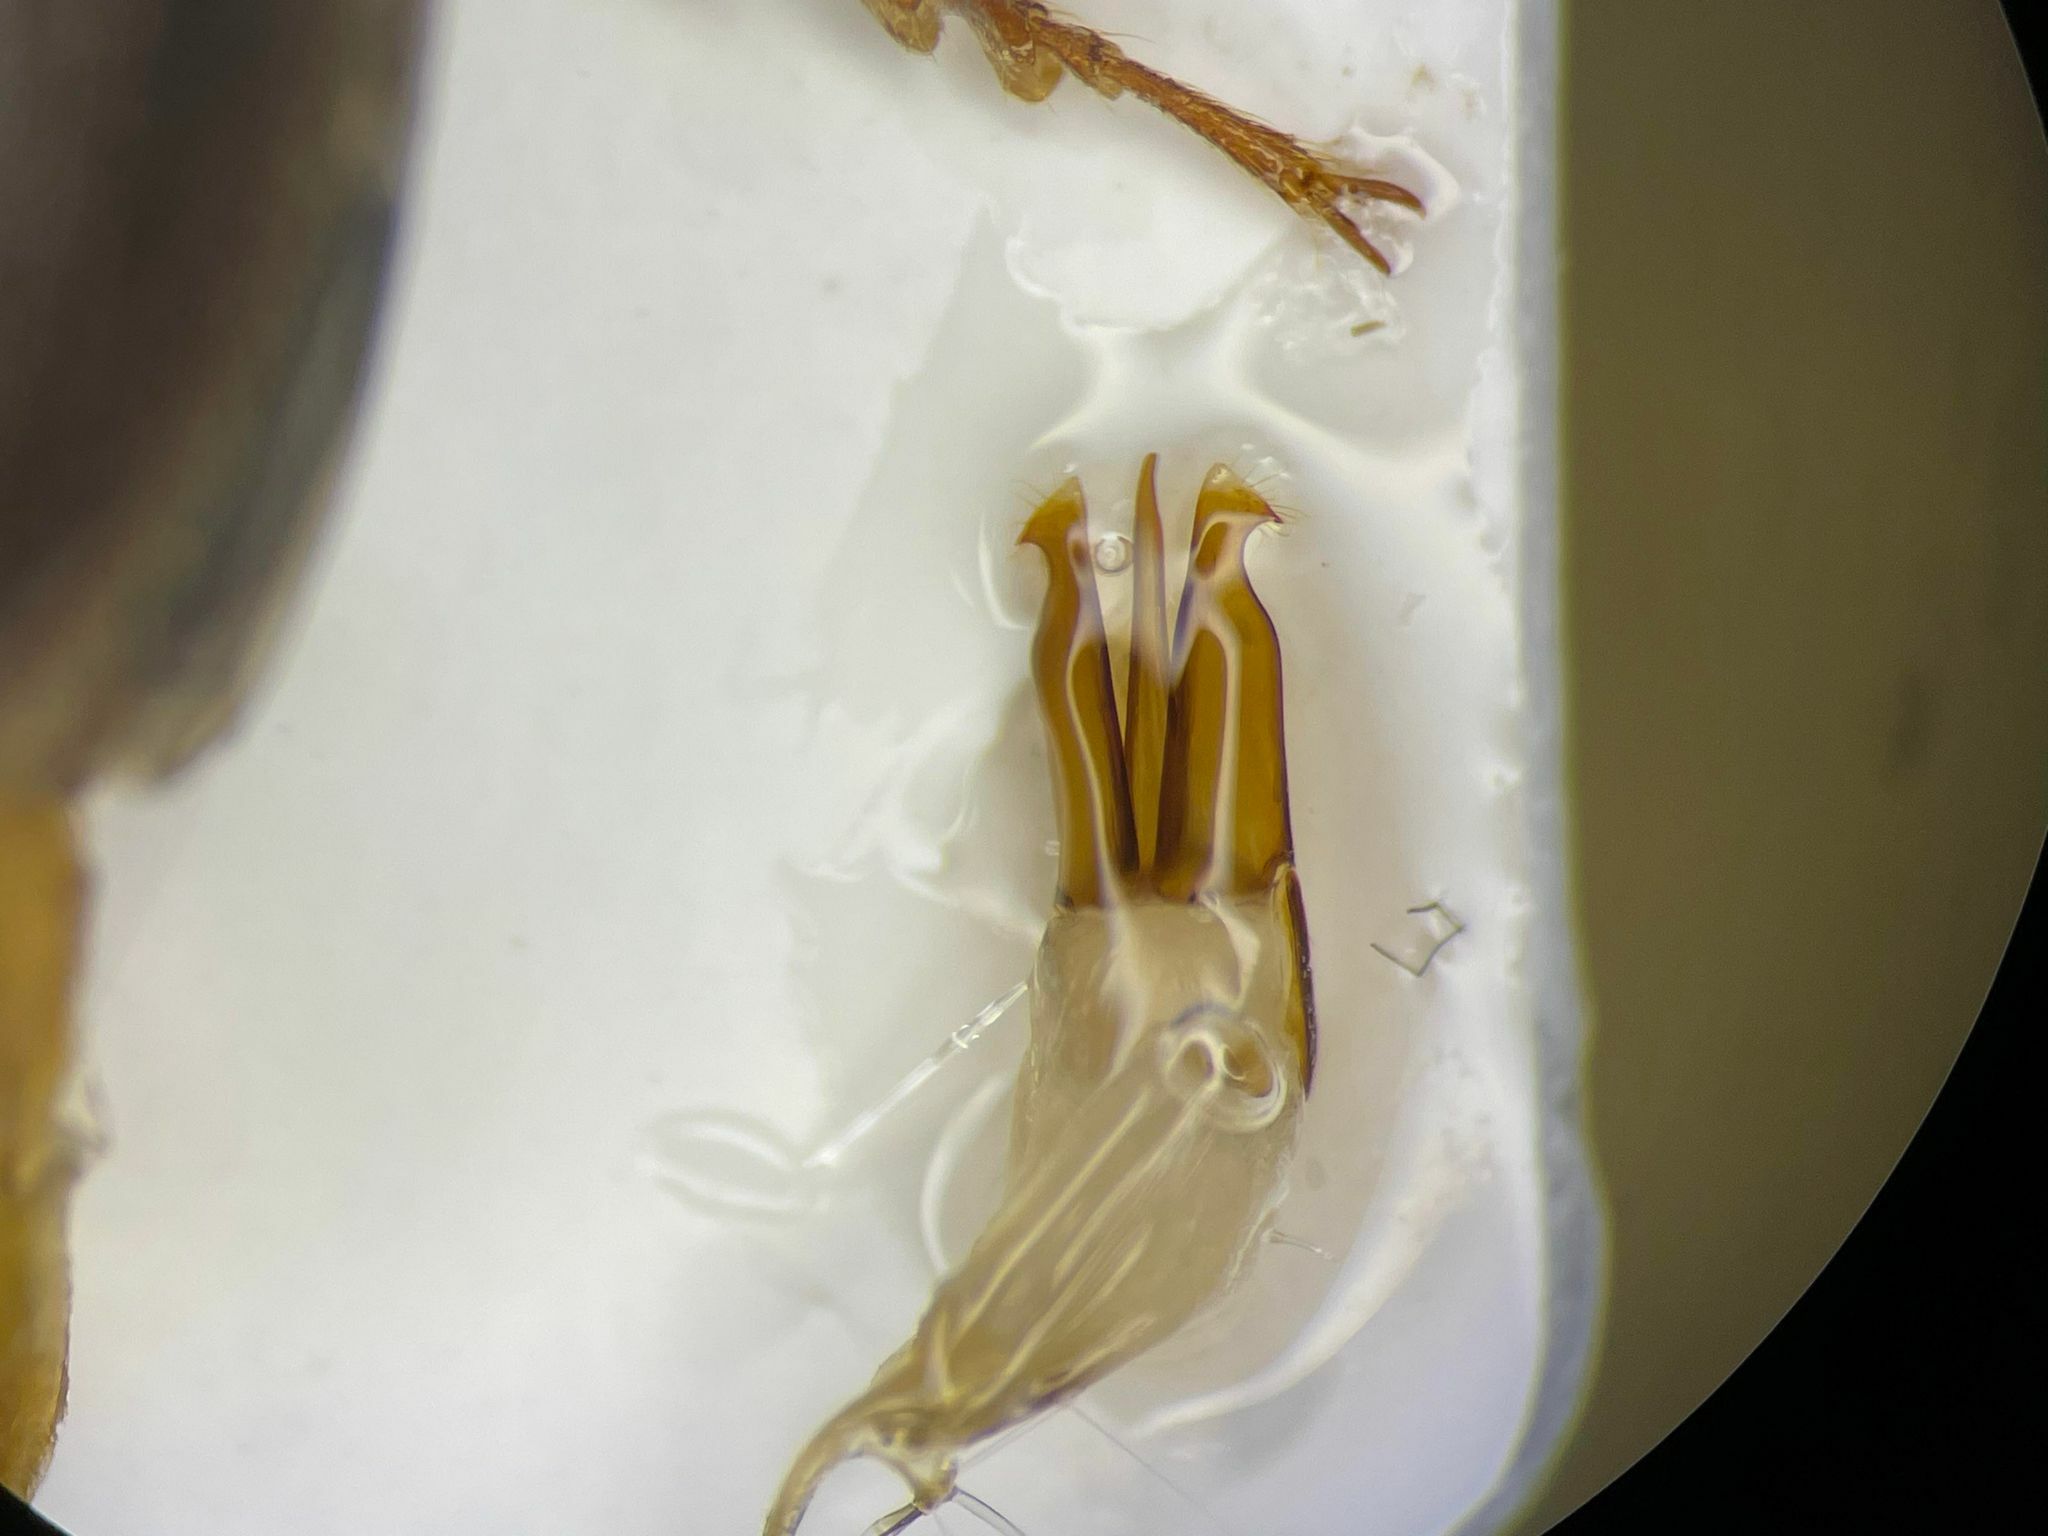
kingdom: Animalia
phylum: Arthropoda
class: Insecta
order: Coleoptera
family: Elateridae
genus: Hemicrepidius
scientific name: Hemicrepidius
